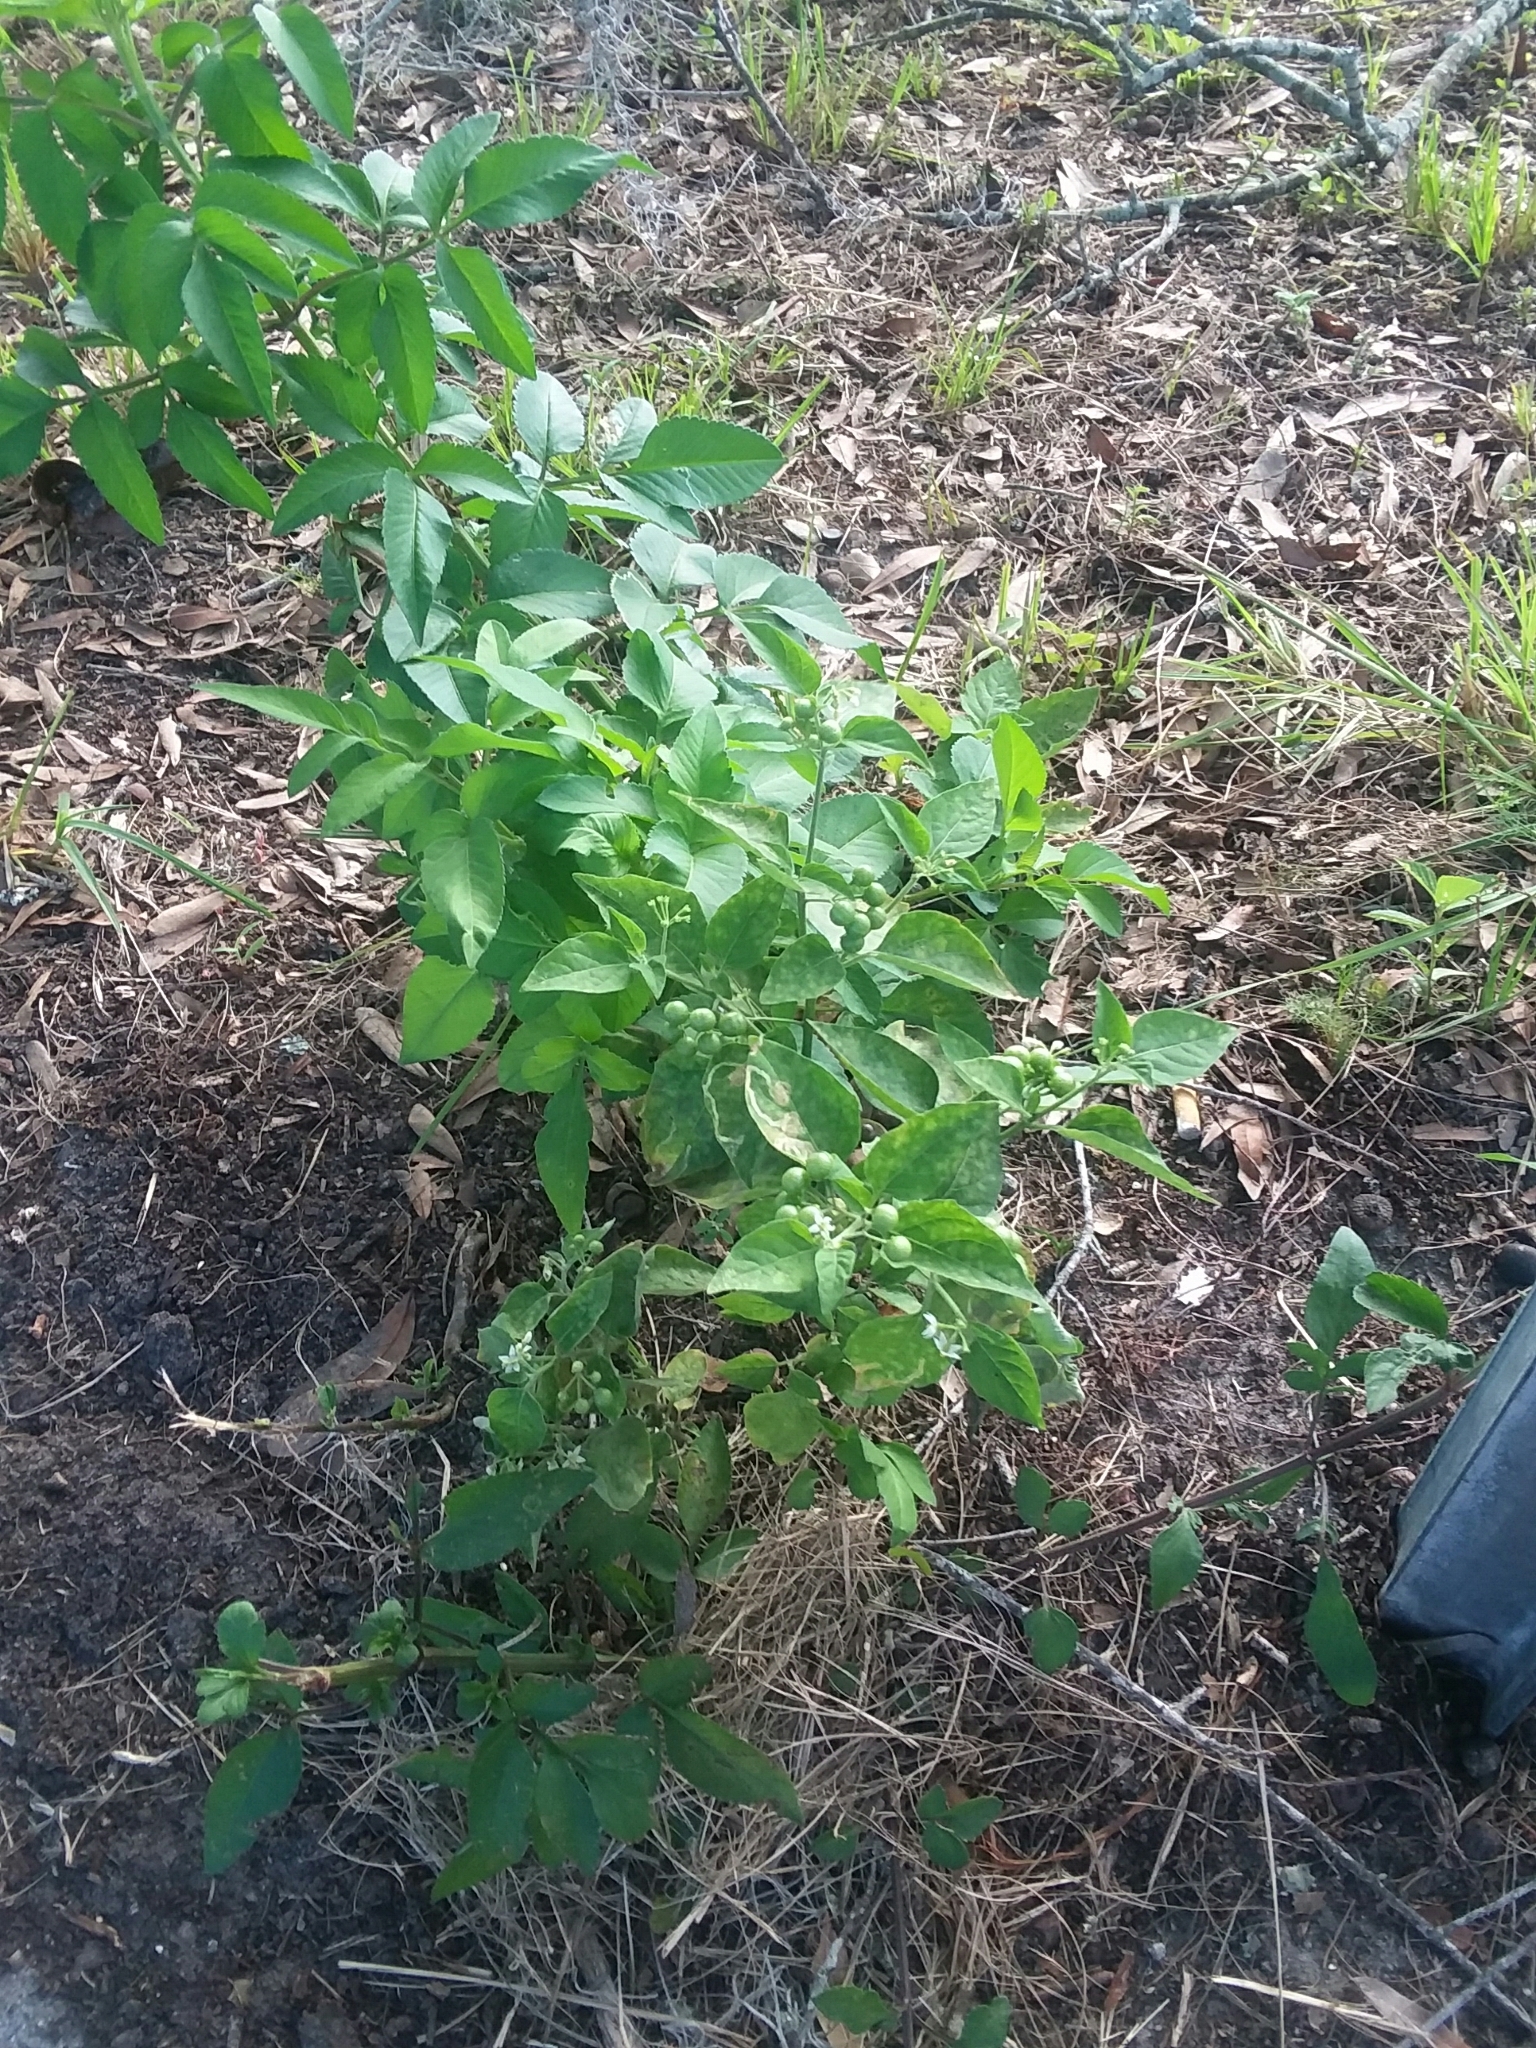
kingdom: Plantae
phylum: Tracheophyta
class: Magnoliopsida
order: Solanales
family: Solanaceae
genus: Solanum
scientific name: Solanum emulans
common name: Eastern black nightshade
